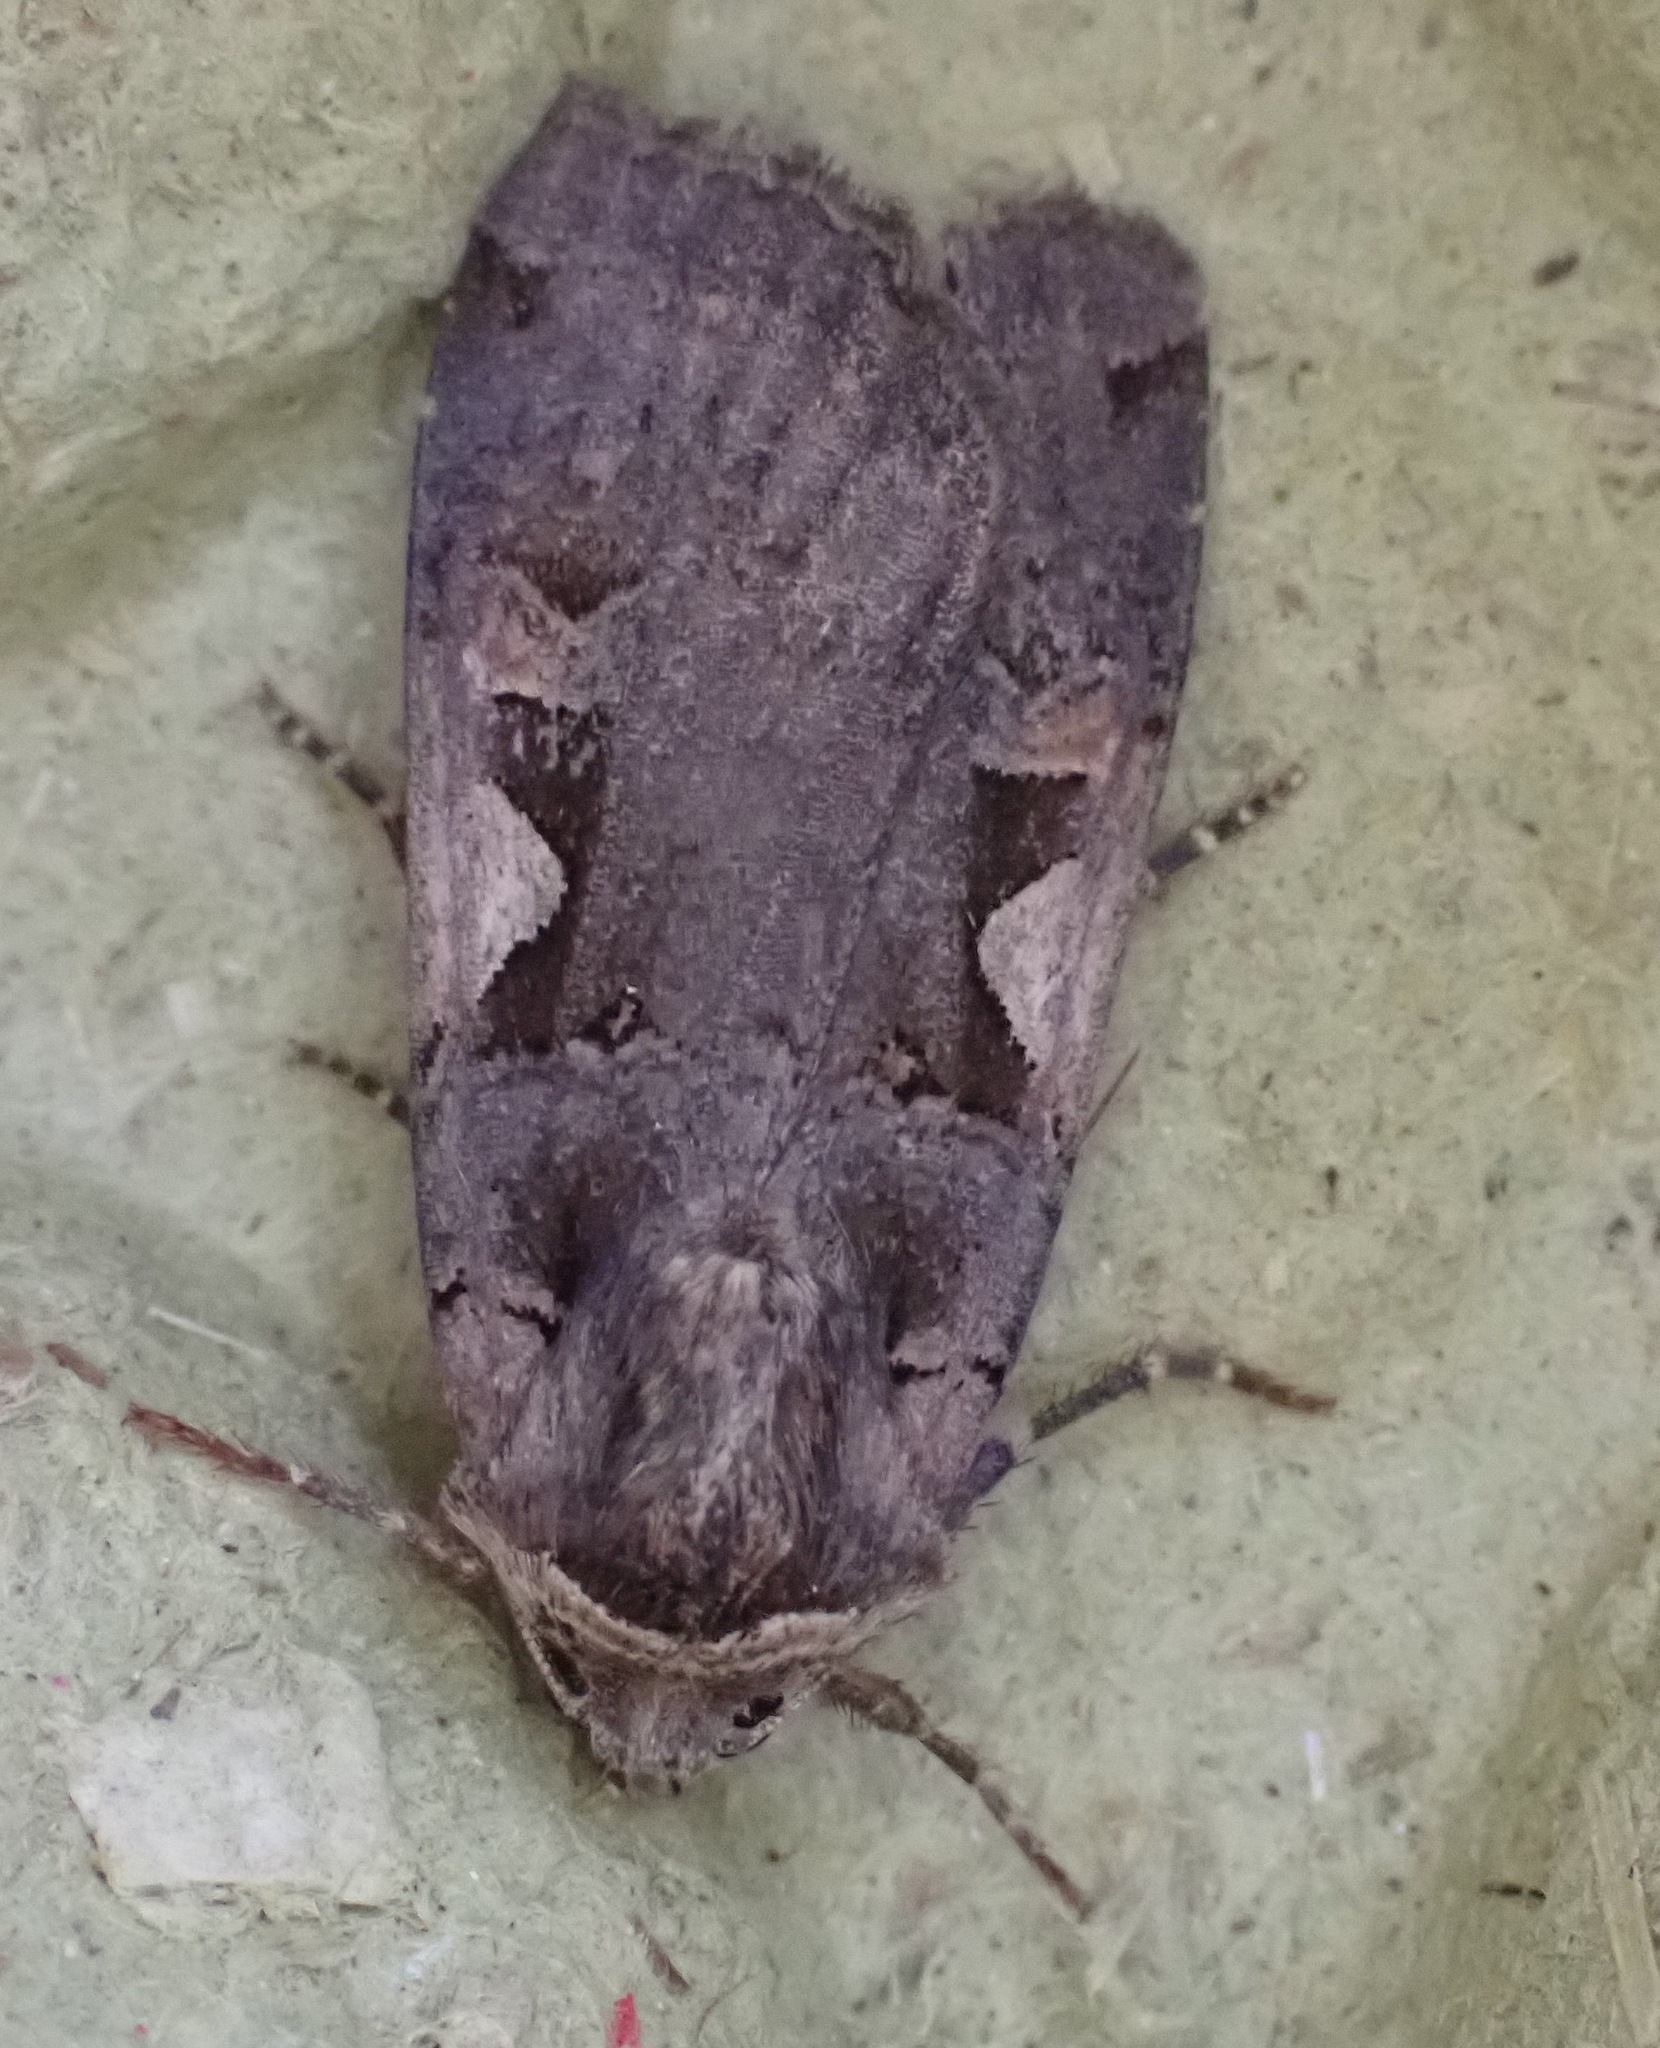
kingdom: Animalia
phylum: Arthropoda
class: Insecta
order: Lepidoptera
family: Noctuidae
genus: Xestia
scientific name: Xestia c-nigrum
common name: Setaceous hebrew character
